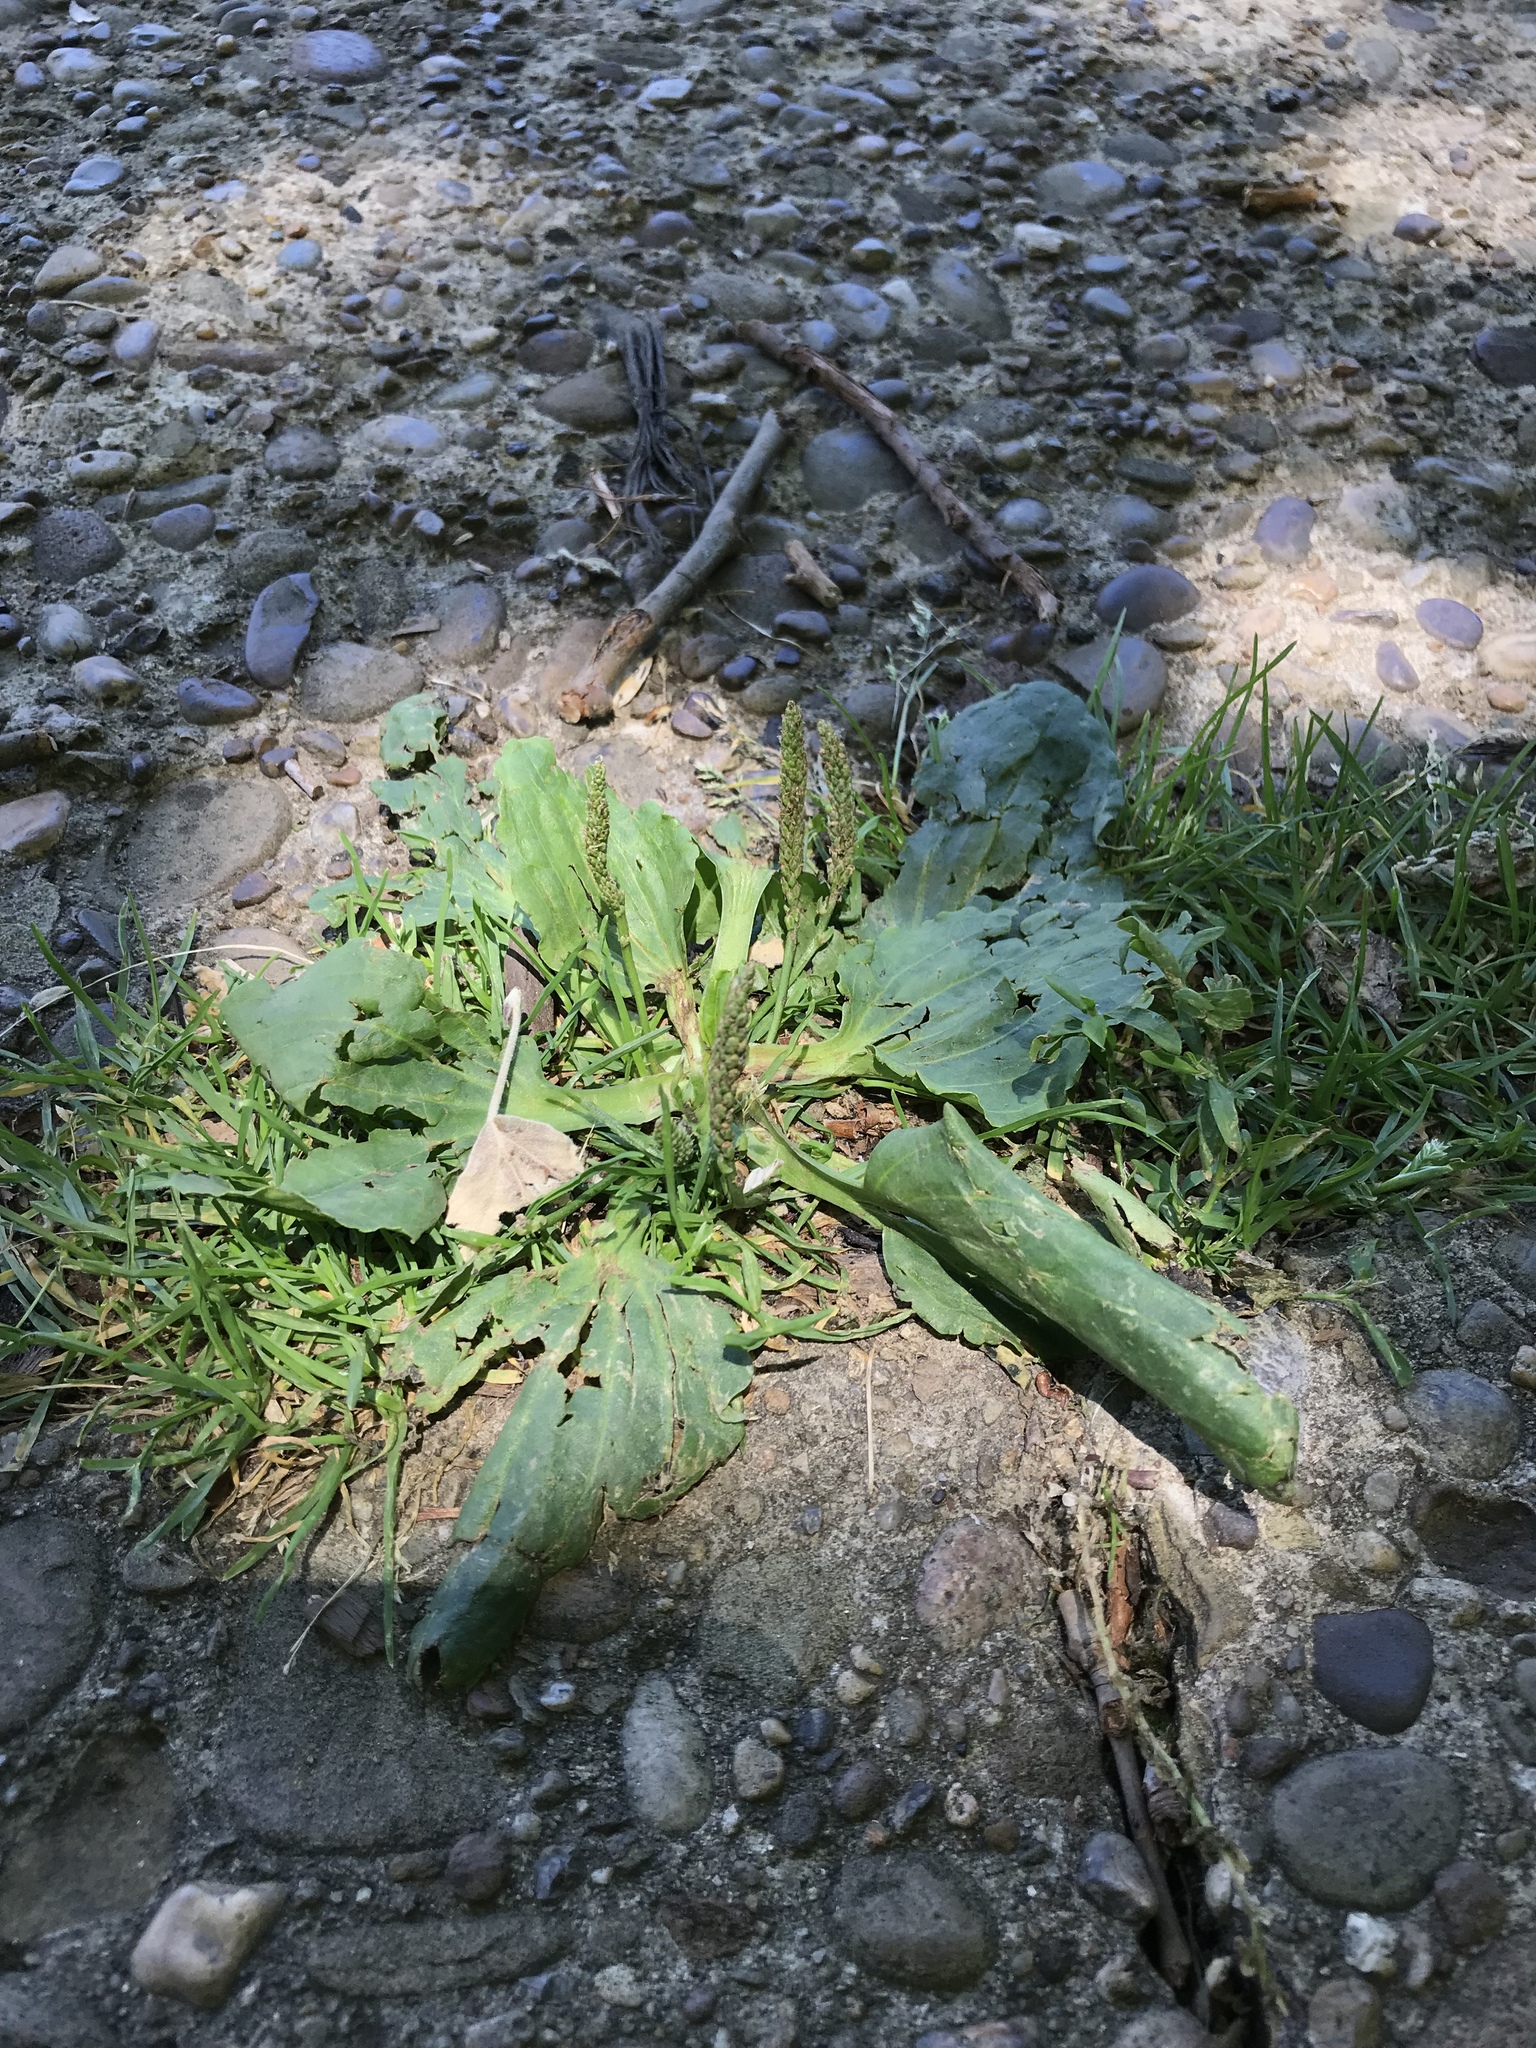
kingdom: Plantae
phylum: Tracheophyta
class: Magnoliopsida
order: Lamiales
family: Plantaginaceae
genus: Plantago
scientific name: Plantago major
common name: Common plantain
